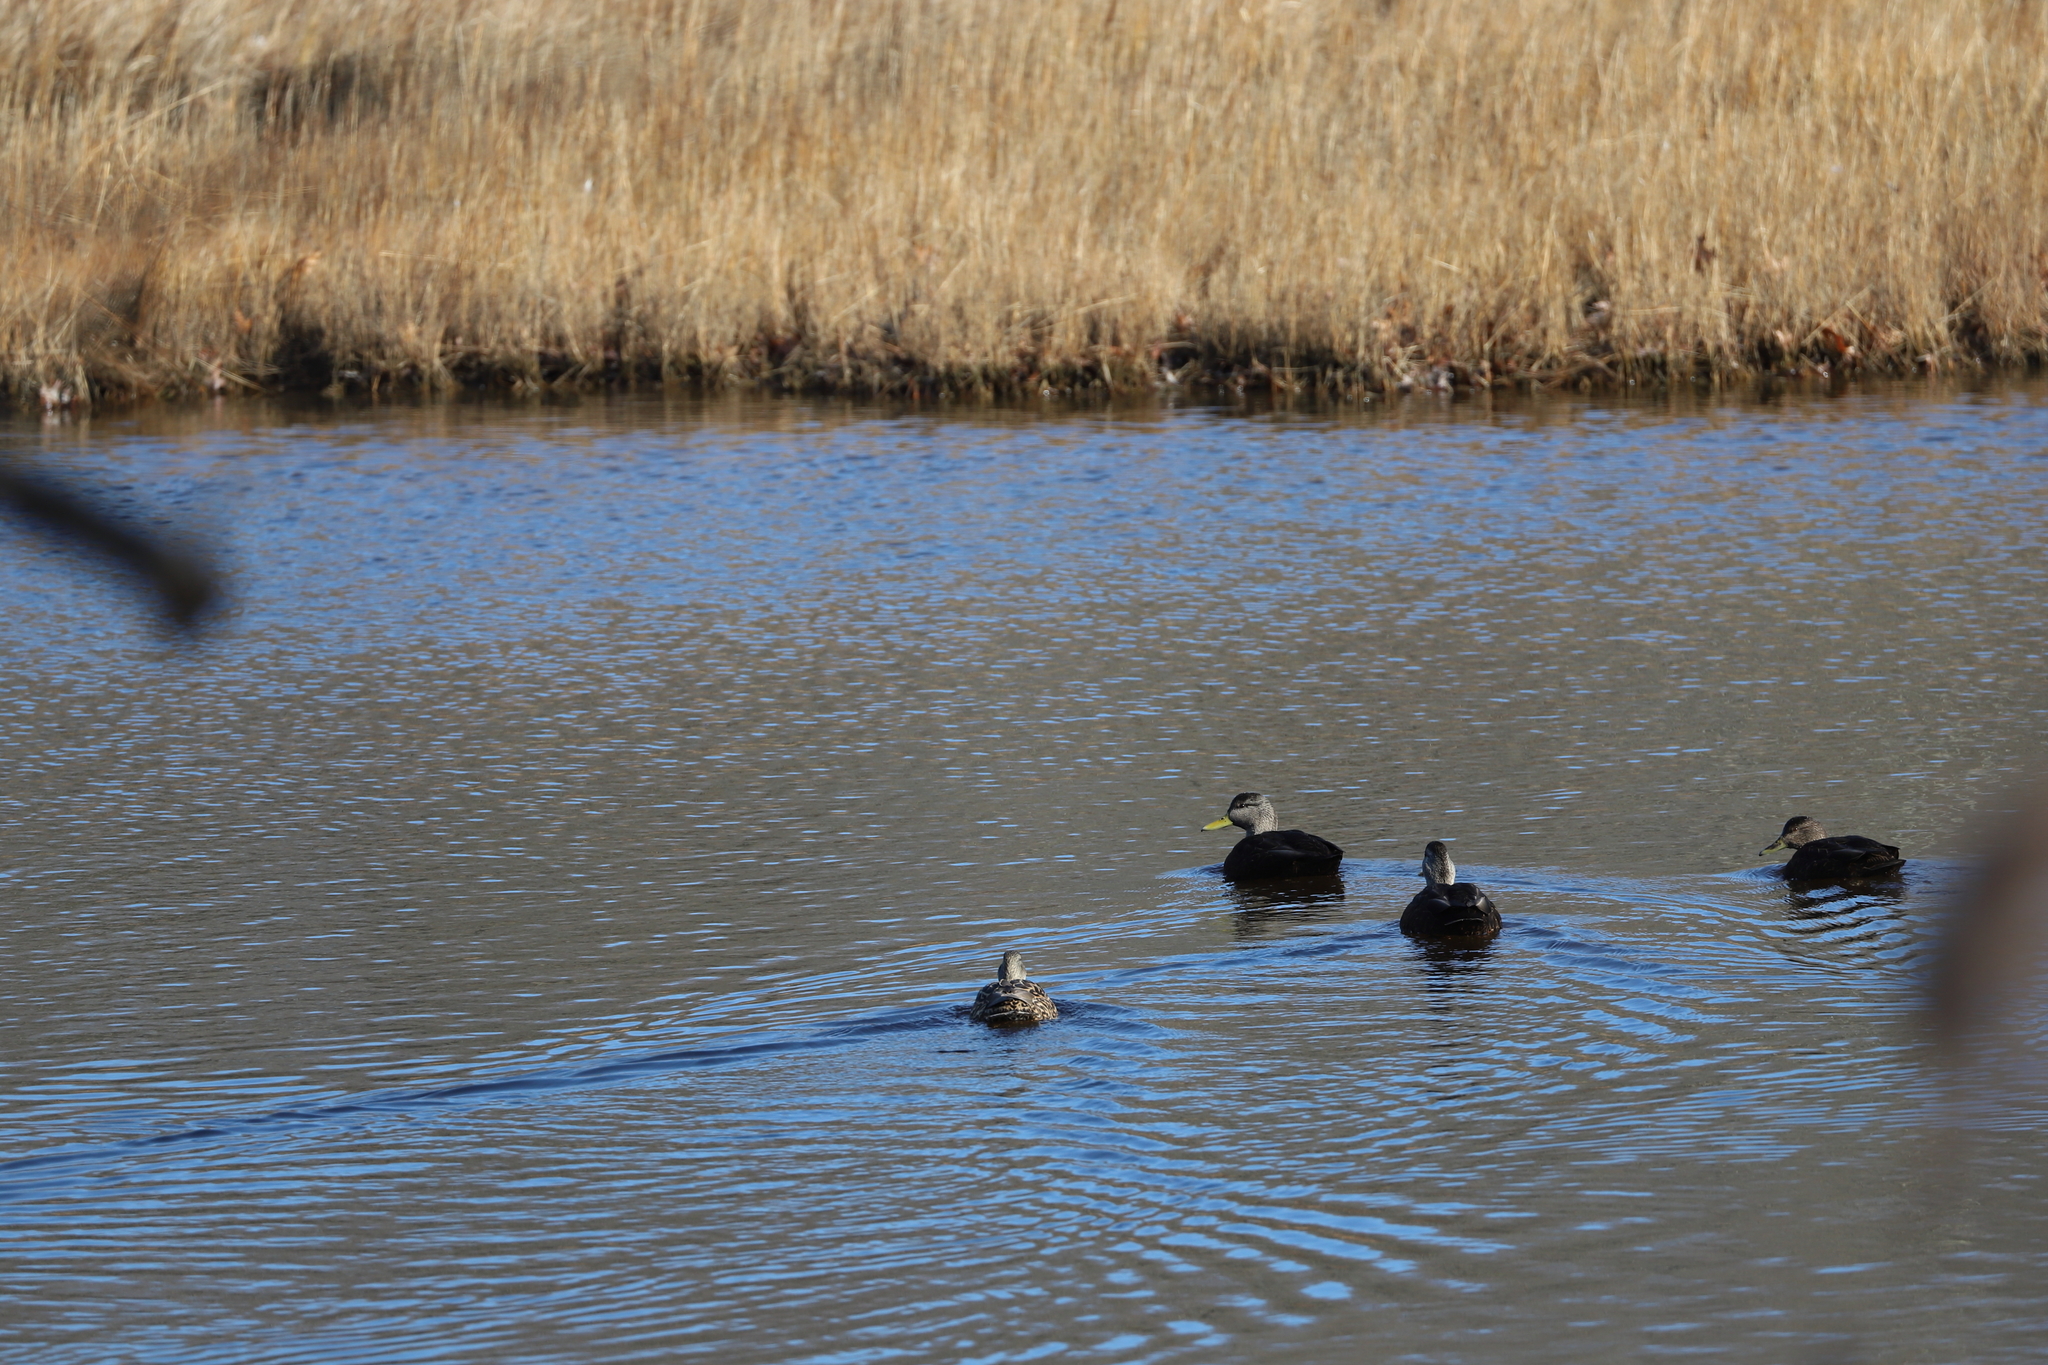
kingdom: Animalia
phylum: Chordata
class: Aves
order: Anseriformes
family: Anatidae
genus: Anas
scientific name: Anas rubripes
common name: American black duck
